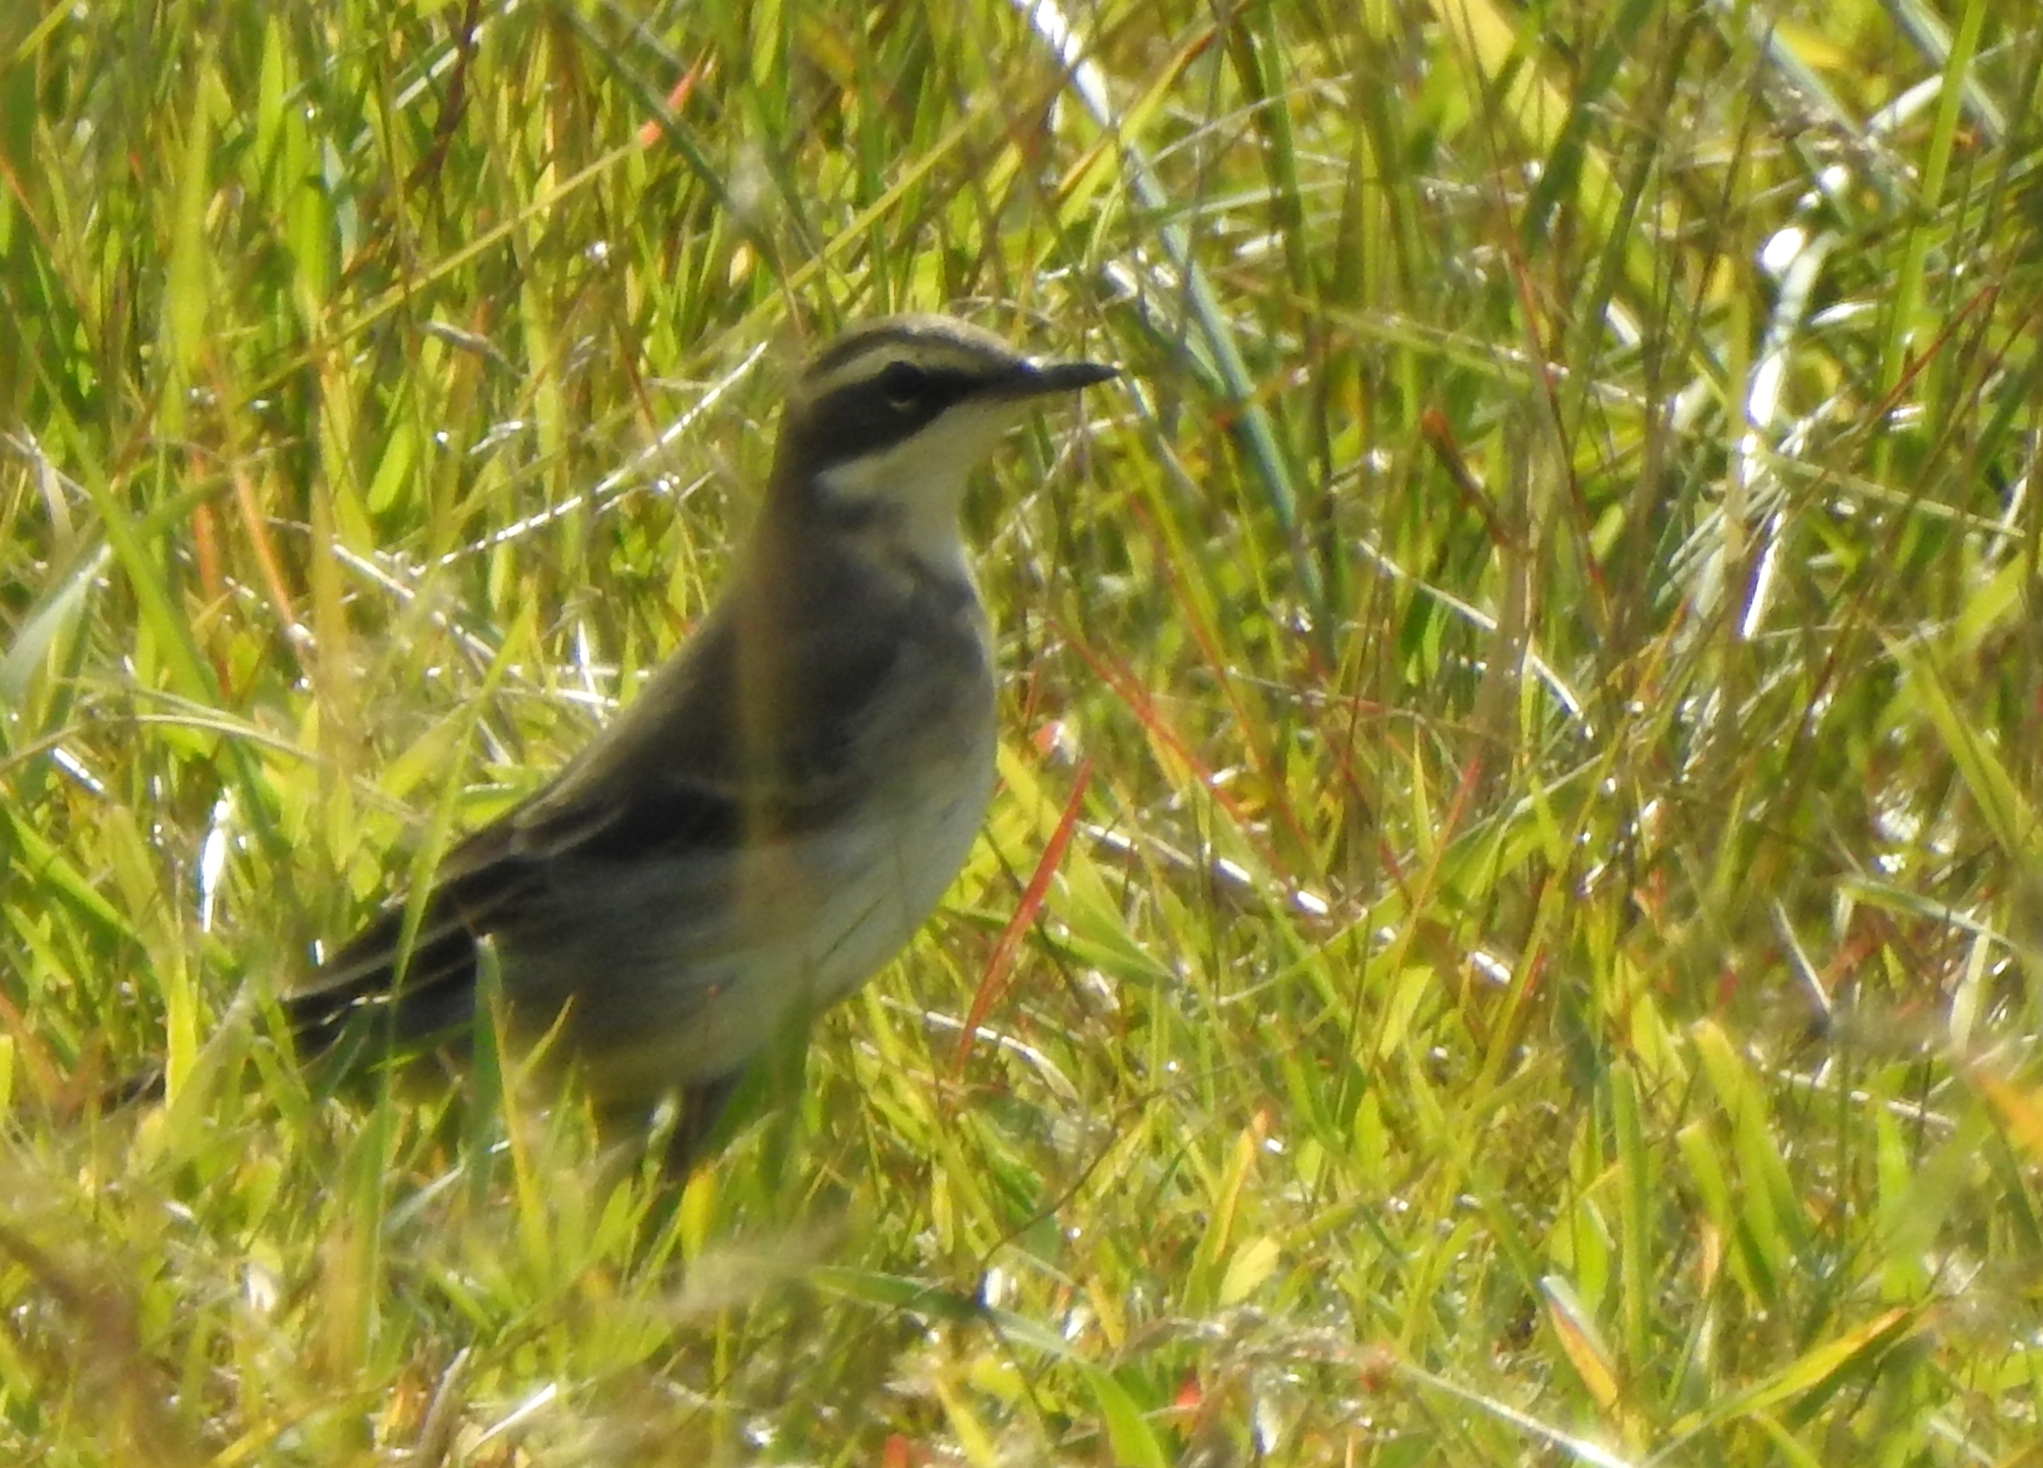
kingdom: Animalia
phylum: Chordata
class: Aves
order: Passeriformes
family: Motacillidae
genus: Motacilla
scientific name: Motacilla tschutschensis
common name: Eastern yellow wagtail
